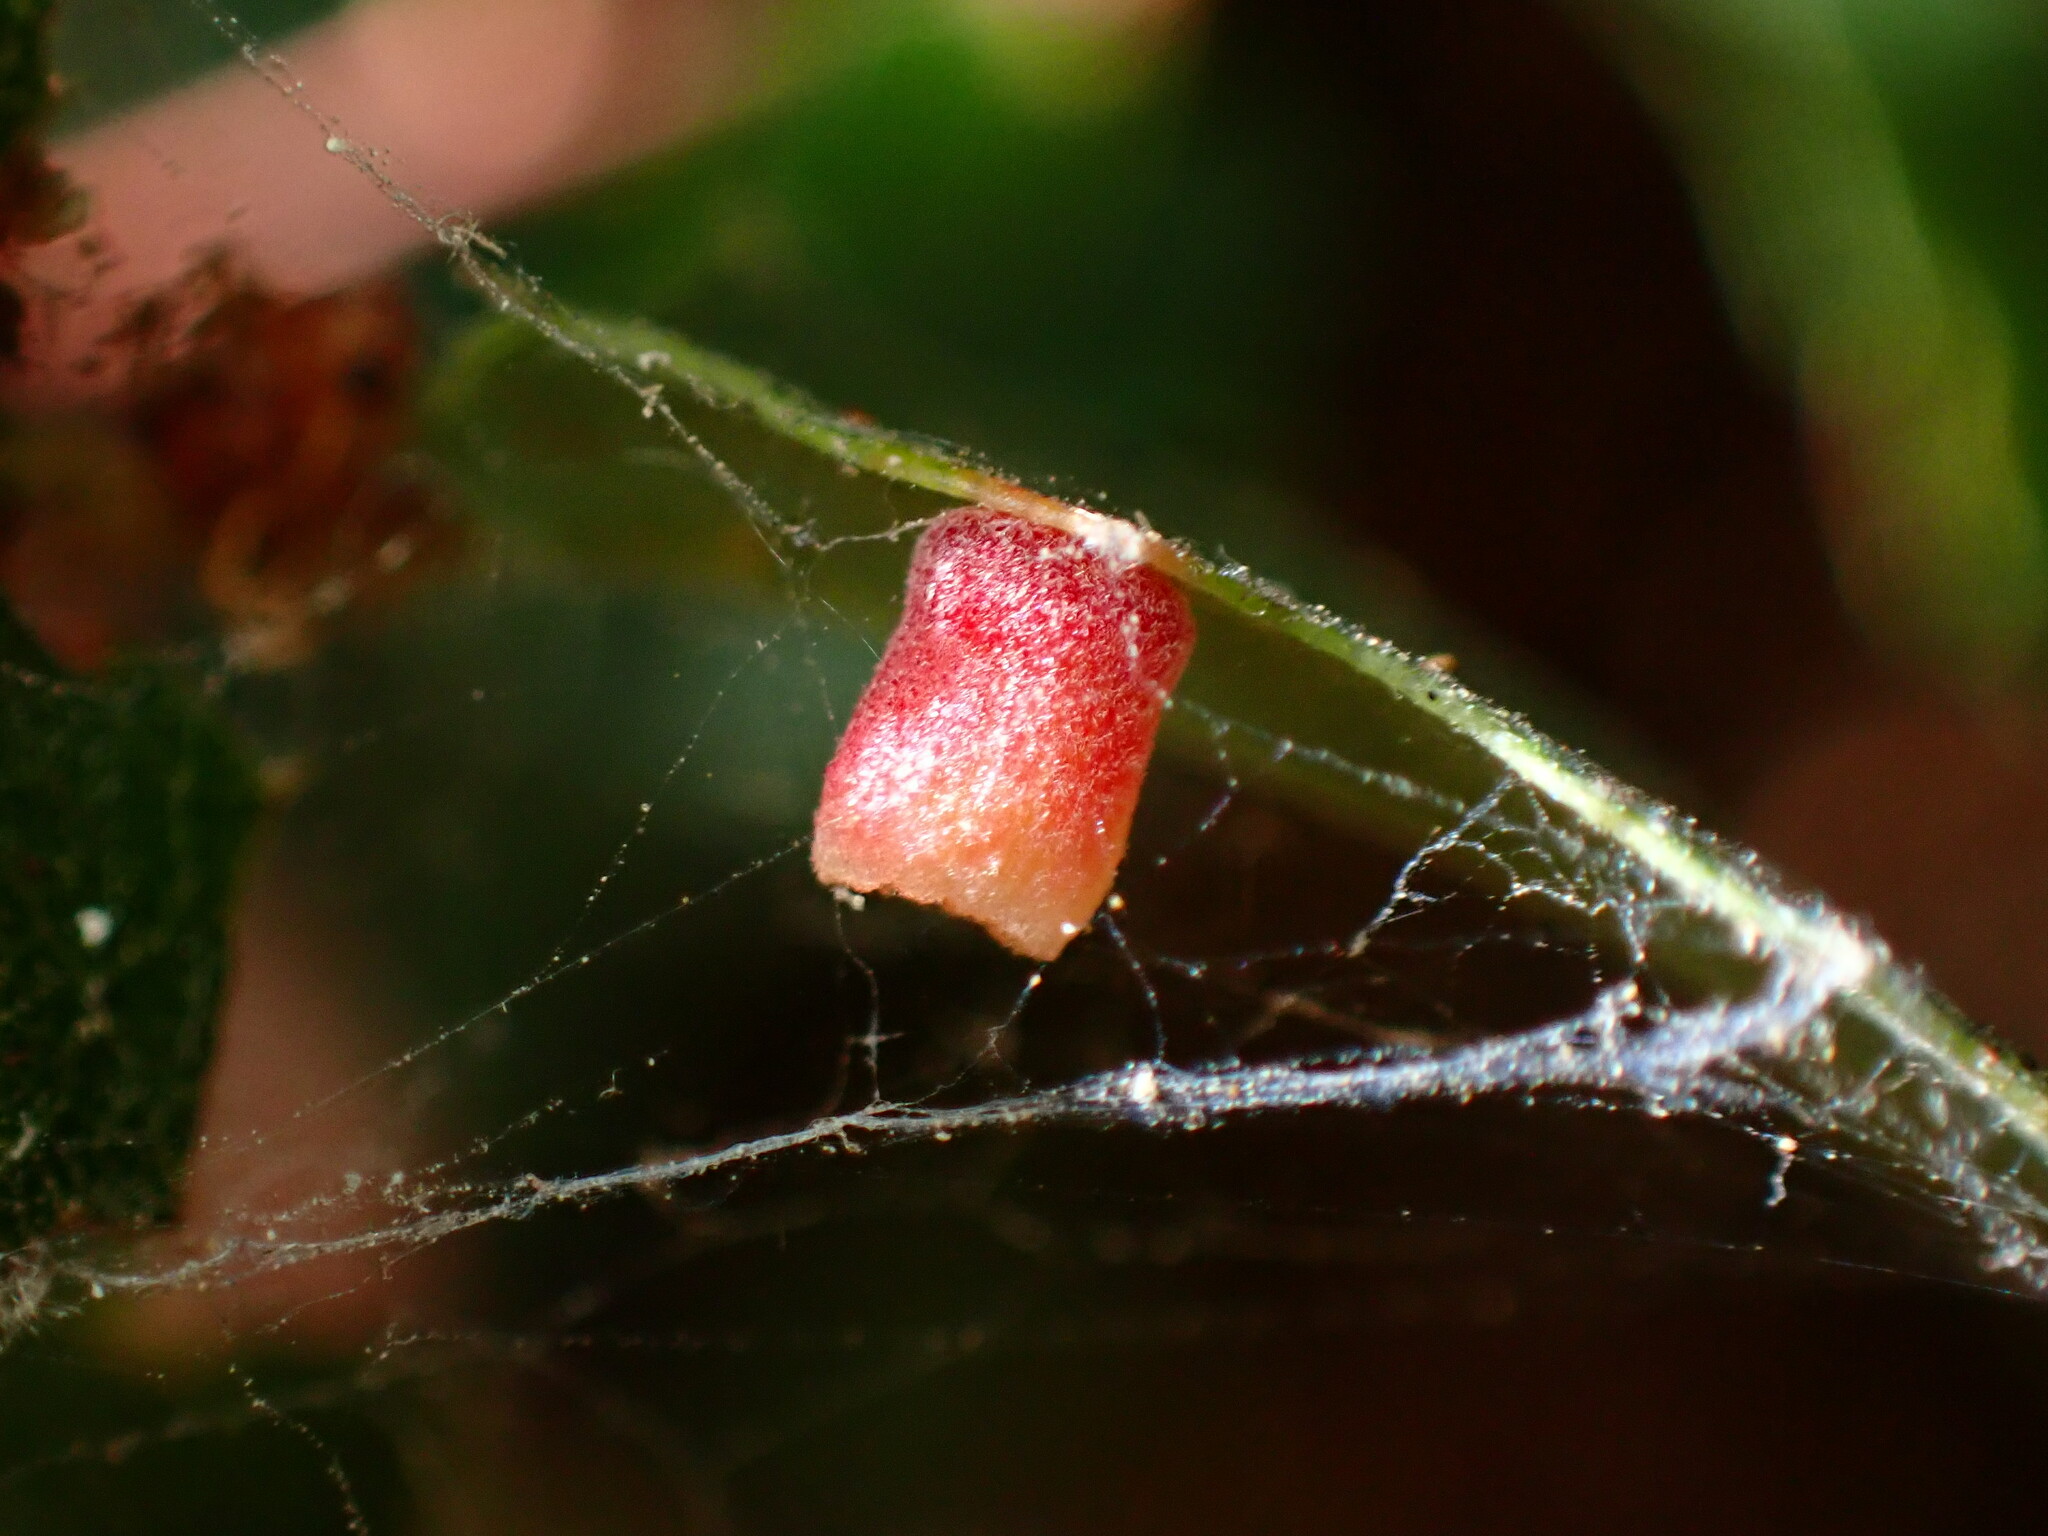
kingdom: Animalia
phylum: Arthropoda
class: Insecta
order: Hymenoptera
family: Cynipidae
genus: Phylloteras
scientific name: Phylloteras
